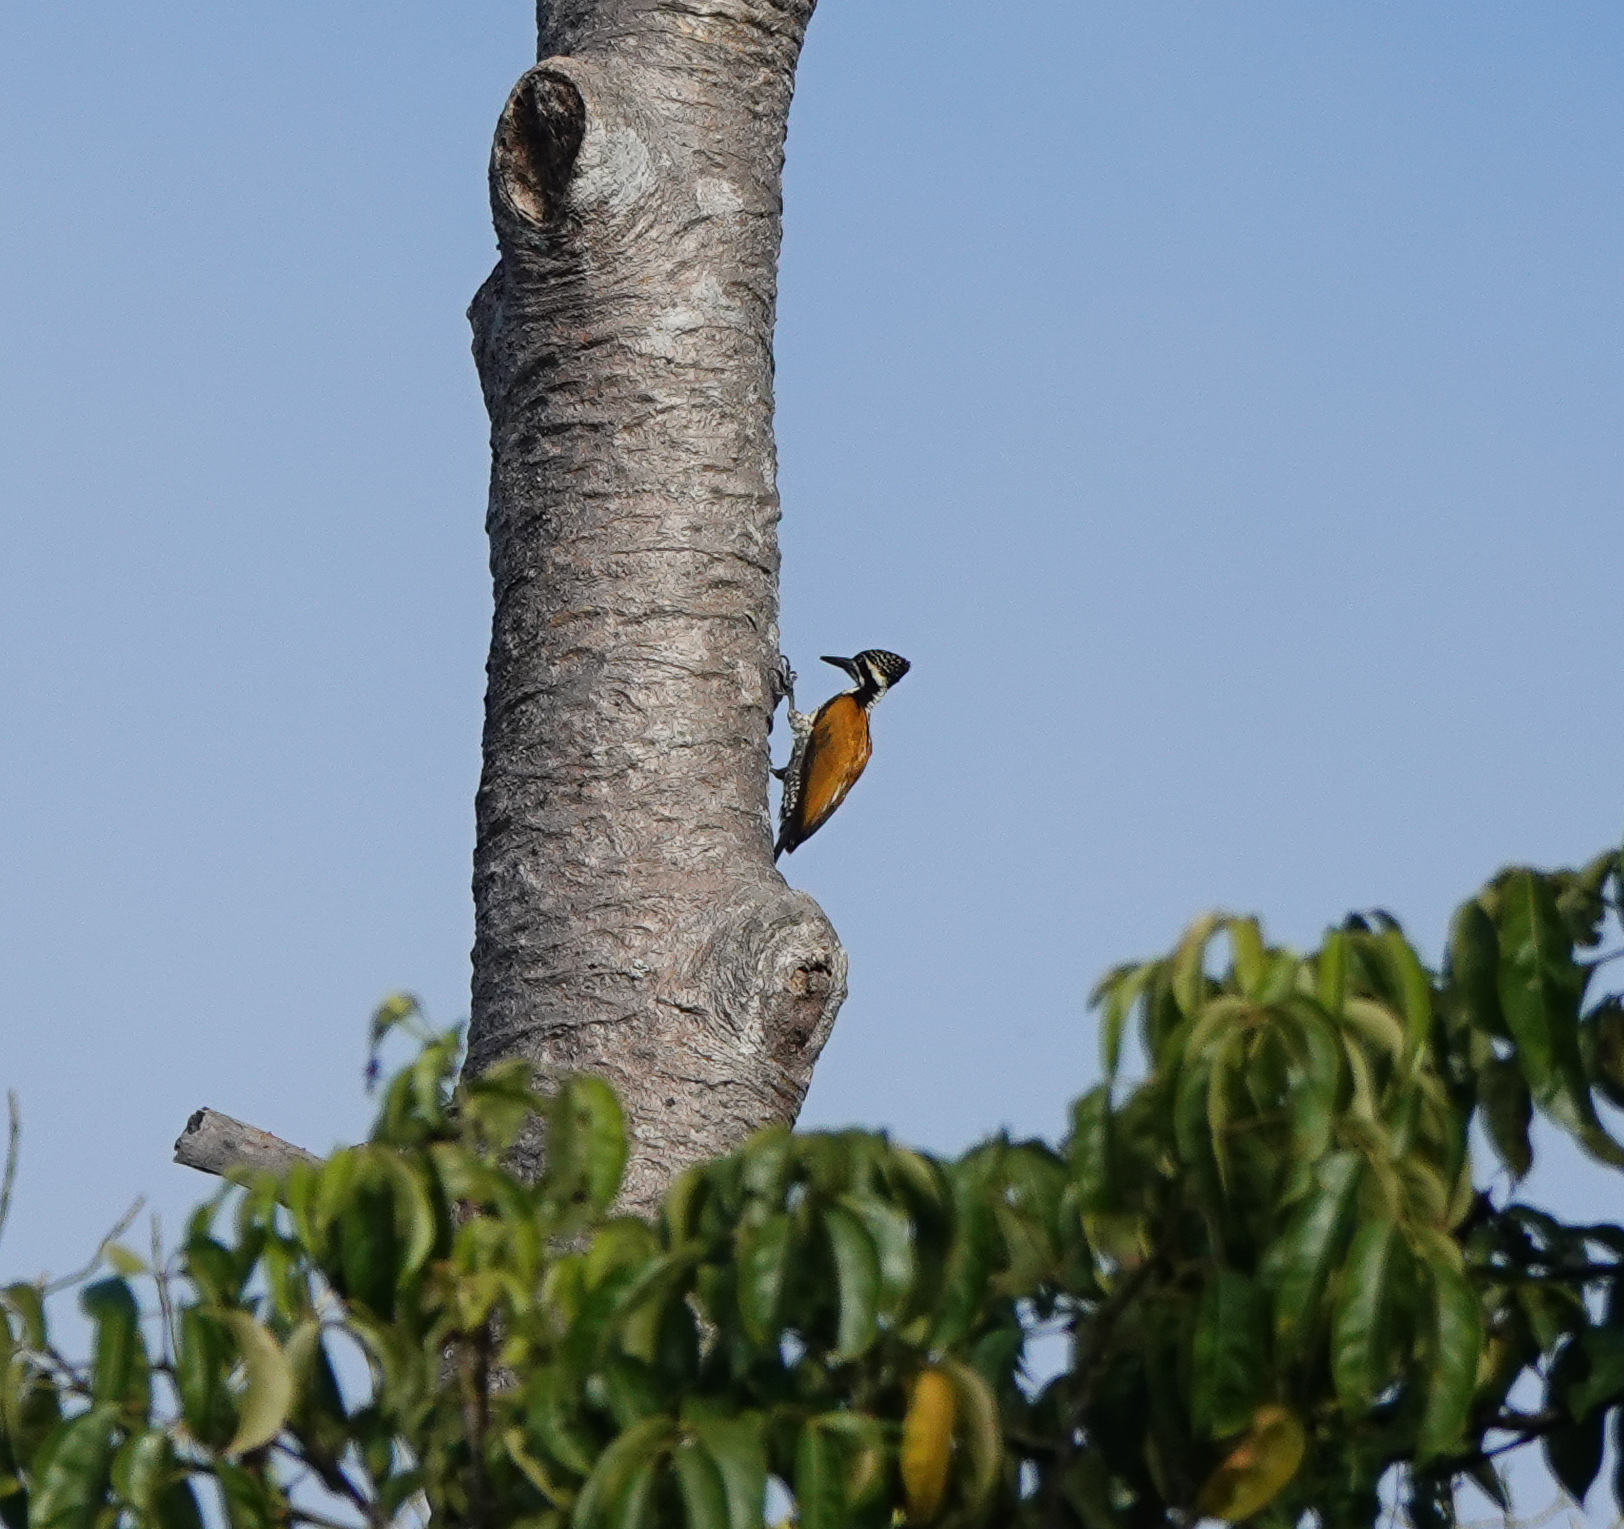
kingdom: Animalia
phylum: Chordata
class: Aves
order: Piciformes
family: Picidae
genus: Chrysocolaptes
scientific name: Chrysocolaptes guttacristatus
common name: Greater flameback
